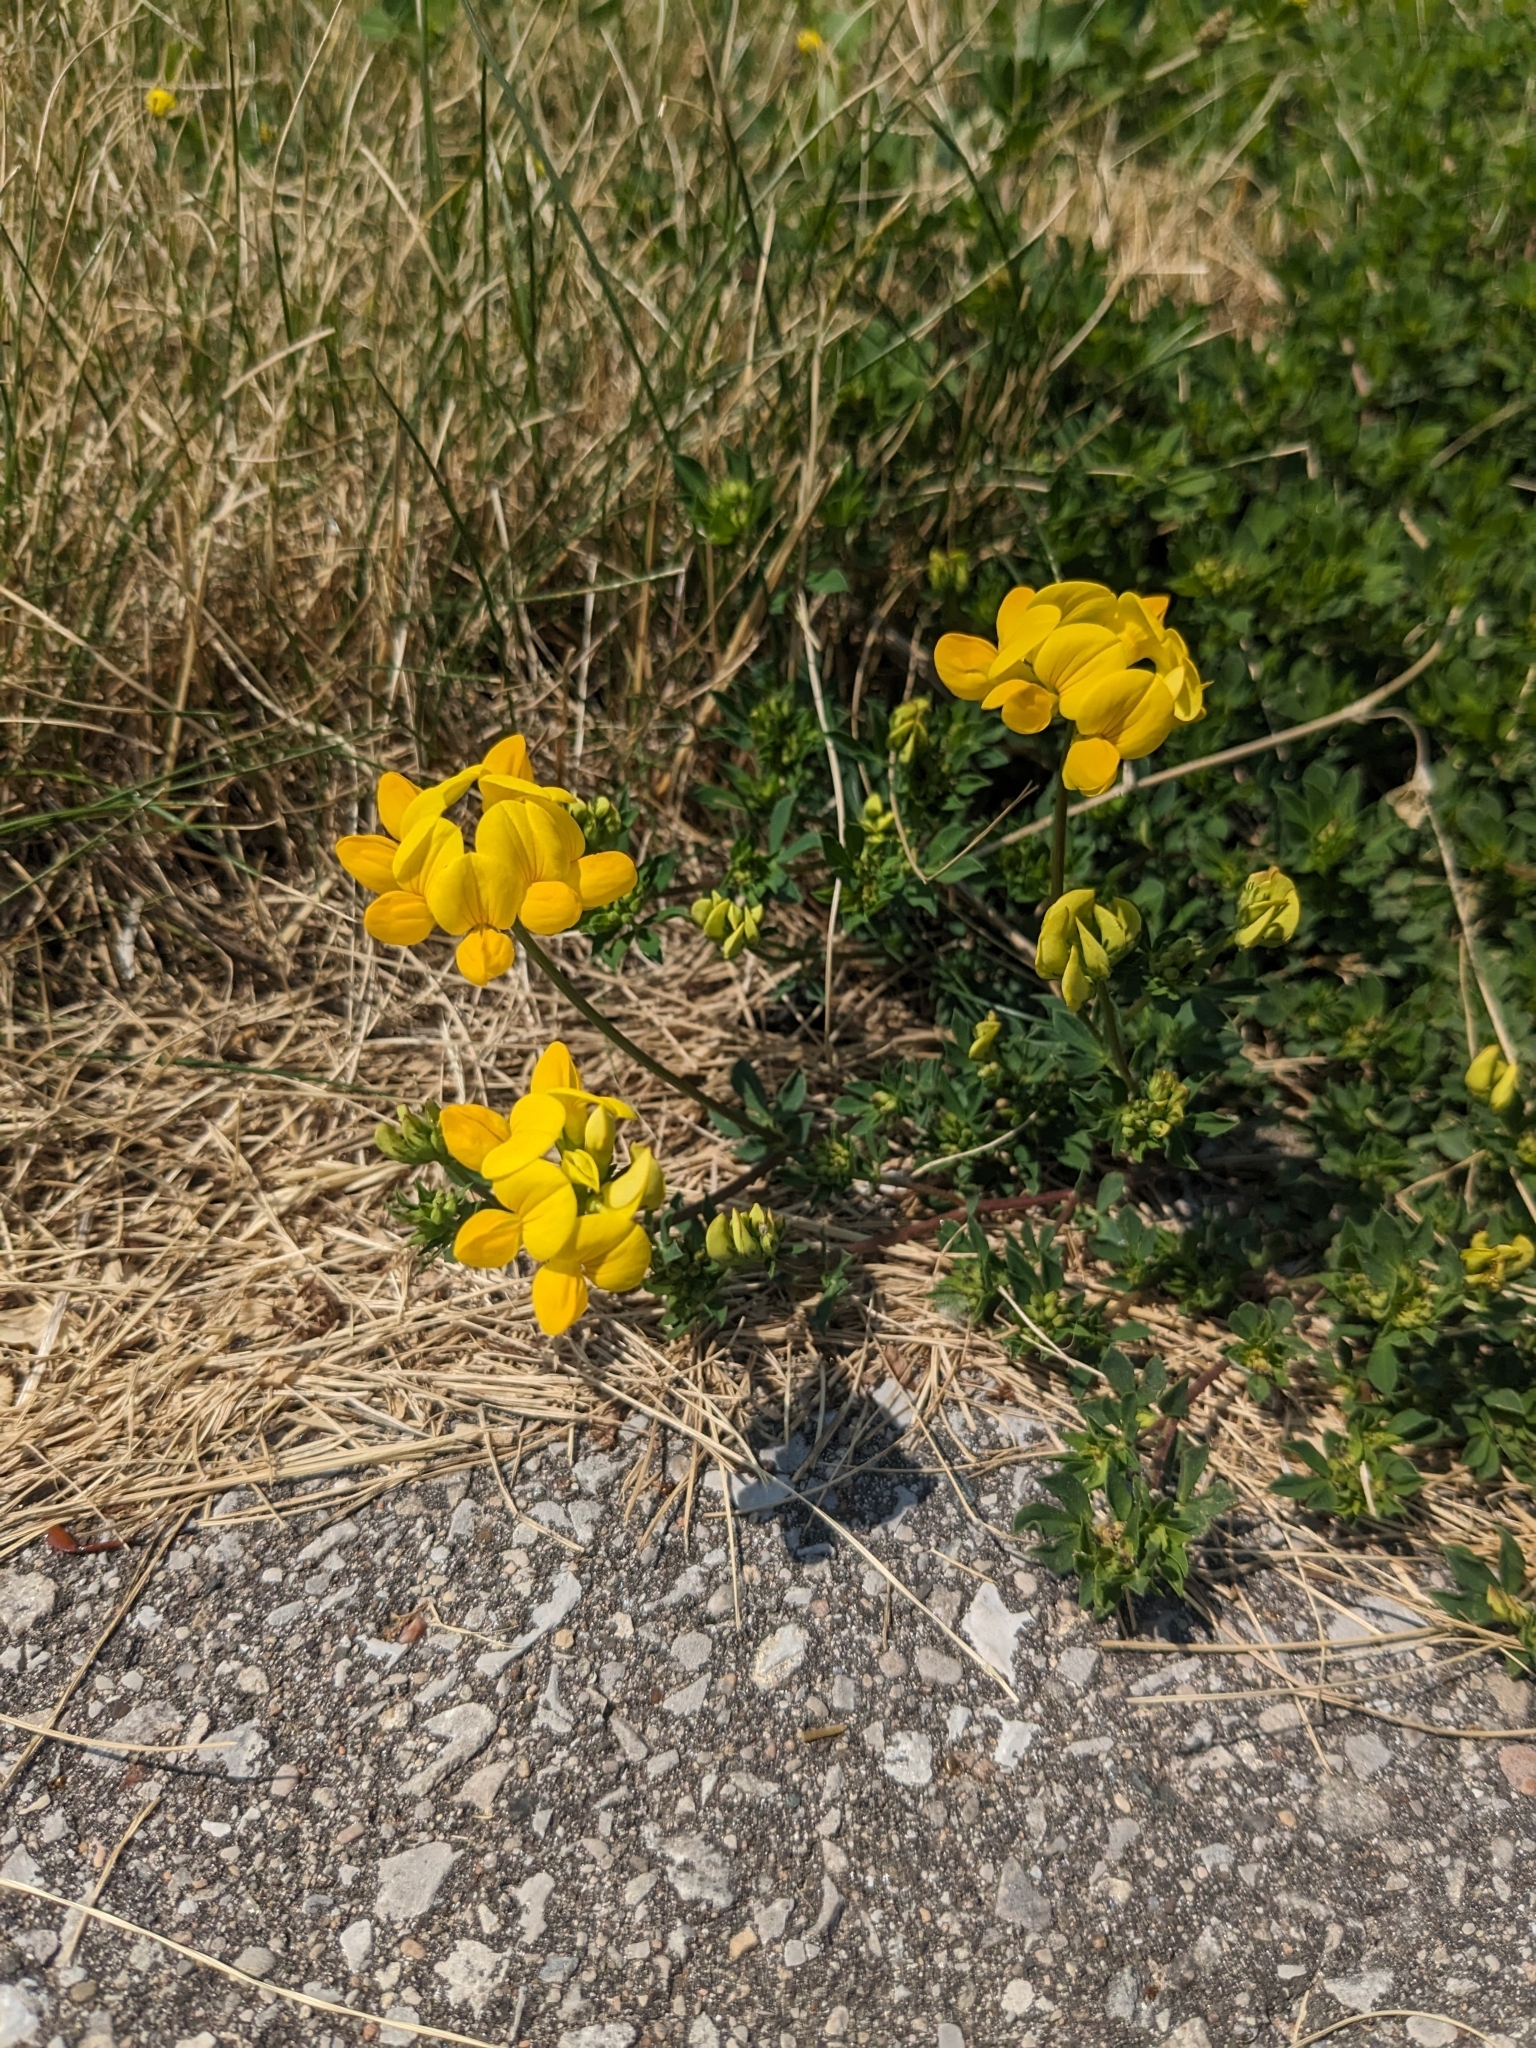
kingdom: Plantae
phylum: Tracheophyta
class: Magnoliopsida
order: Fabales
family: Fabaceae
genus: Lotus
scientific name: Lotus corniculatus
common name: Common bird's-foot-trefoil
